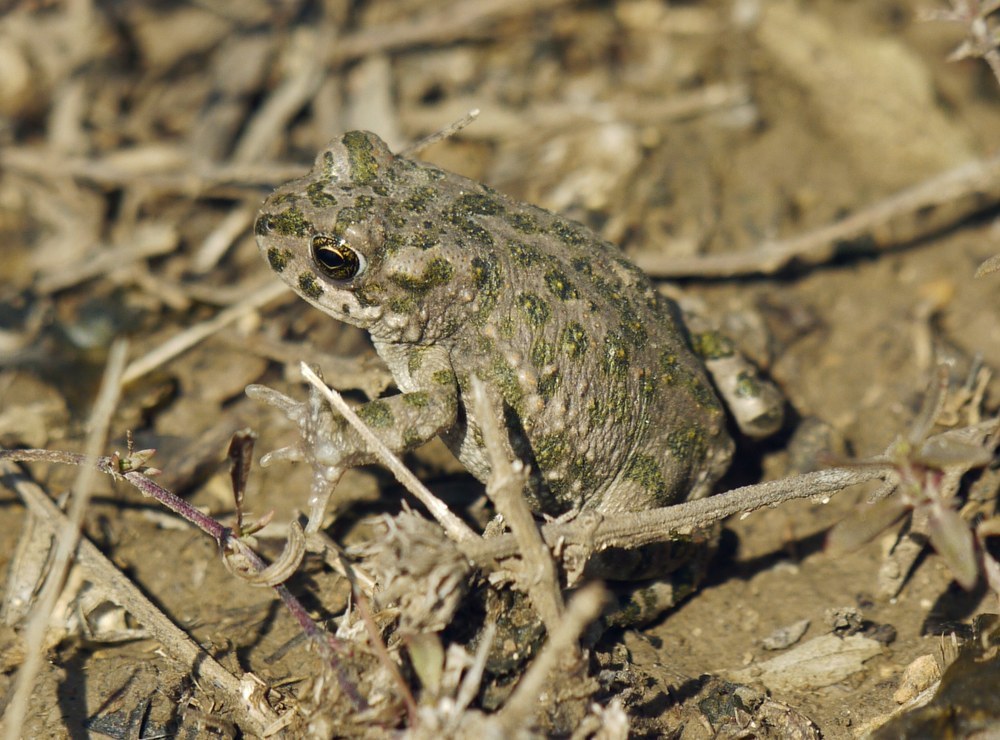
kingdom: Animalia
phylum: Chordata
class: Amphibia
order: Anura
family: Bufonidae
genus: Bufotes
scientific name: Bufotes viridis
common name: European green toad
